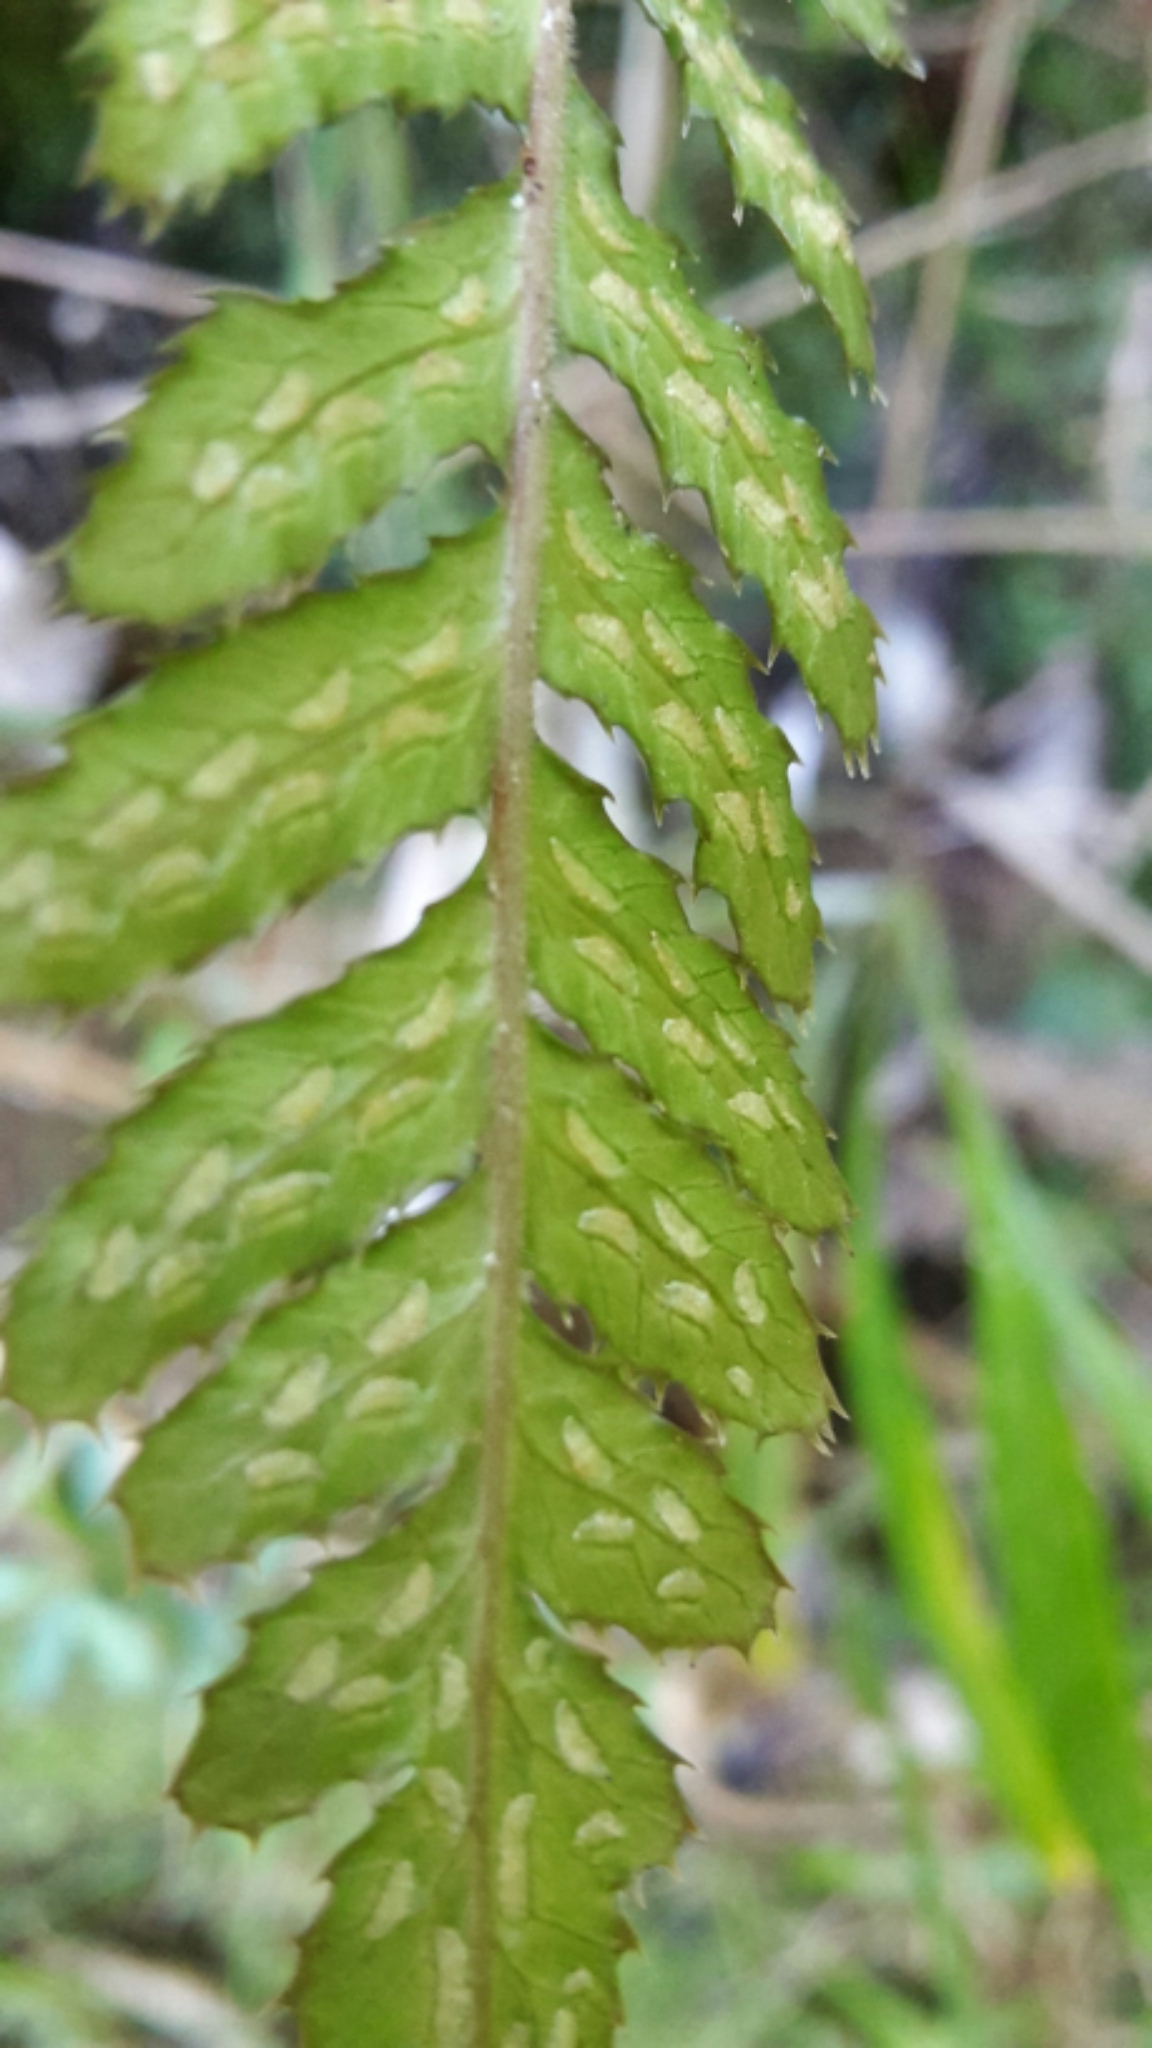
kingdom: Plantae
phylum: Tracheophyta
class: Polypodiopsida
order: Polypodiales
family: Blechnaceae
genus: Doodia
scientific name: Doodia australis
